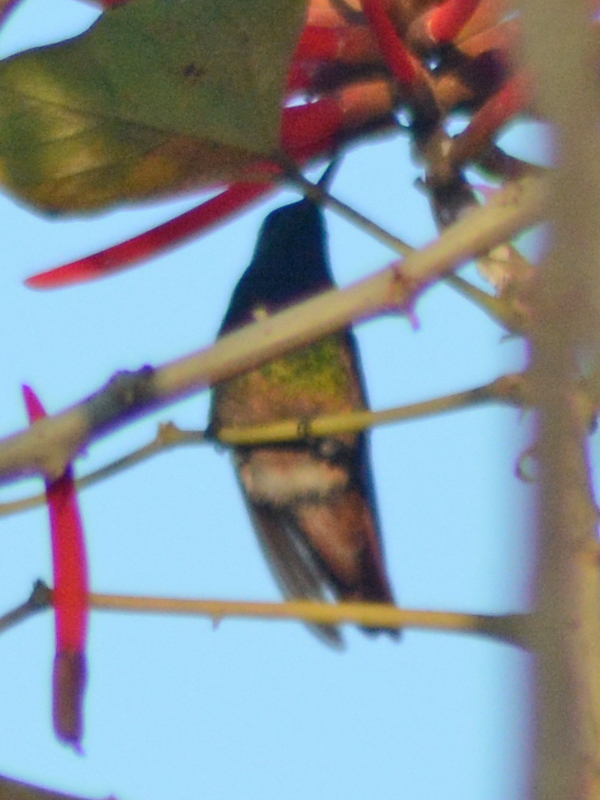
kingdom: Animalia
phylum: Chordata
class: Aves
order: Apodiformes
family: Trochilidae
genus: Saucerottia
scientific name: Saucerottia beryllina
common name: Berylline hummingbird
